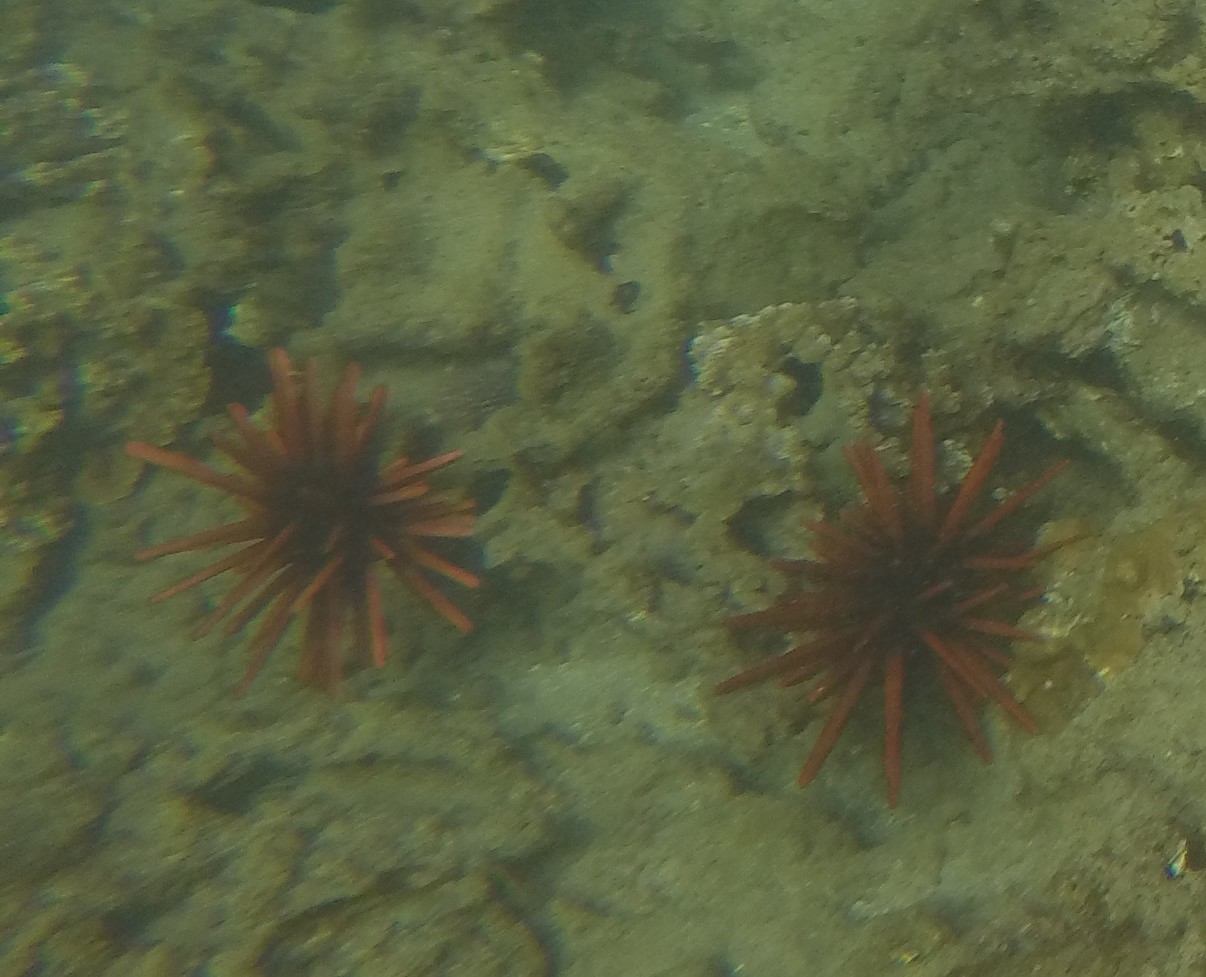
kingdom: Animalia
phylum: Echinodermata
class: Echinoidea
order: Camarodonta
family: Echinometridae
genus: Heterocentrotus
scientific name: Heterocentrotus mamillatus
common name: Slate pencil urchin
